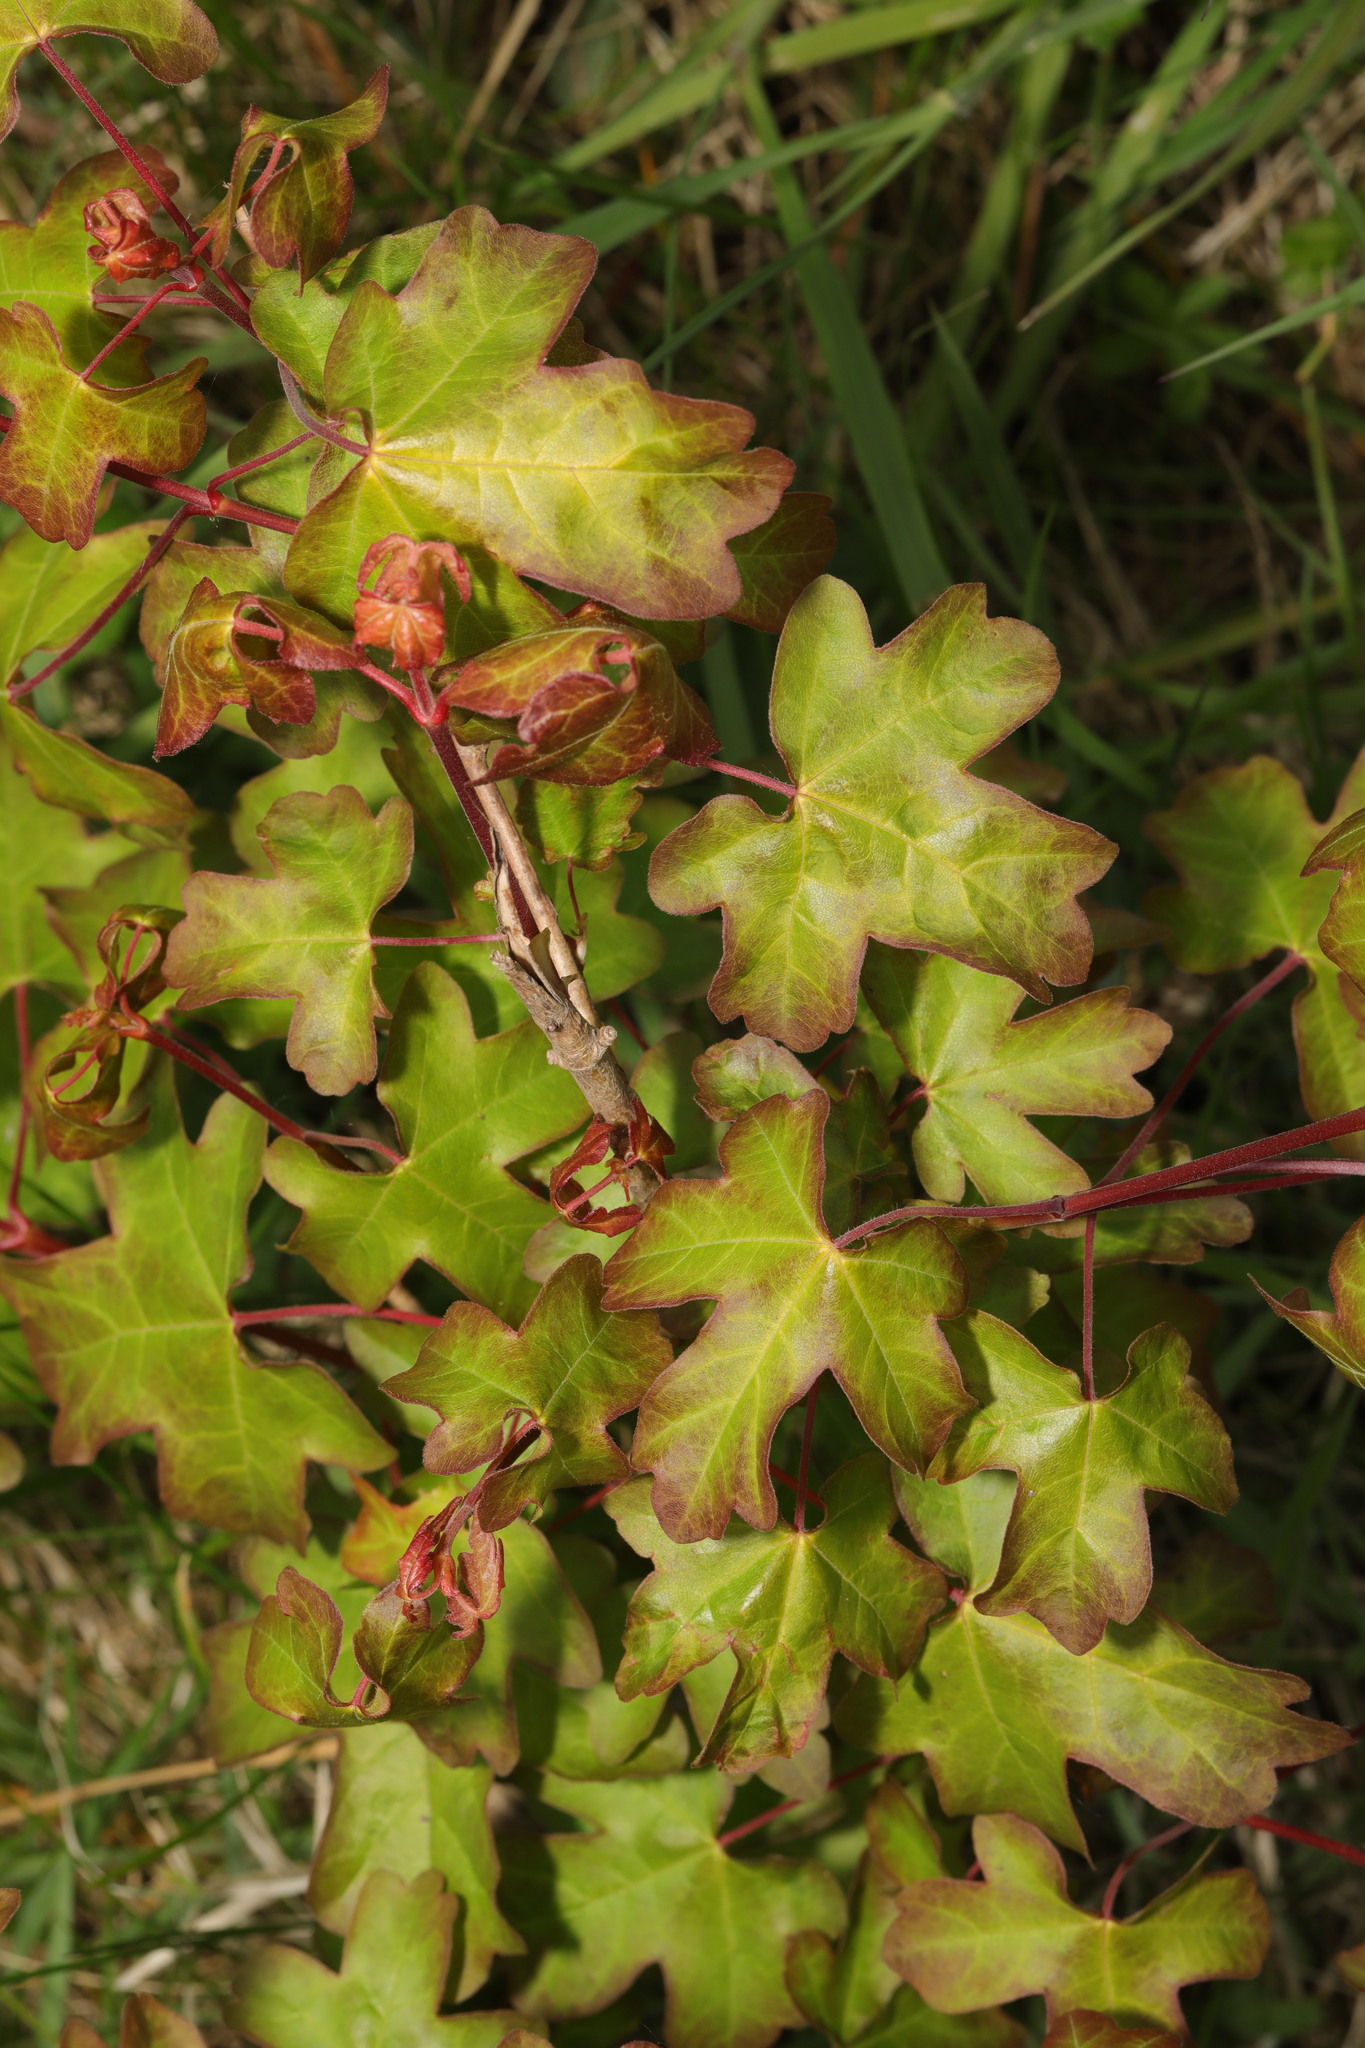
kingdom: Plantae
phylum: Tracheophyta
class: Magnoliopsida
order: Sapindales
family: Sapindaceae
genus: Acer
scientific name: Acer campestre
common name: Field maple
